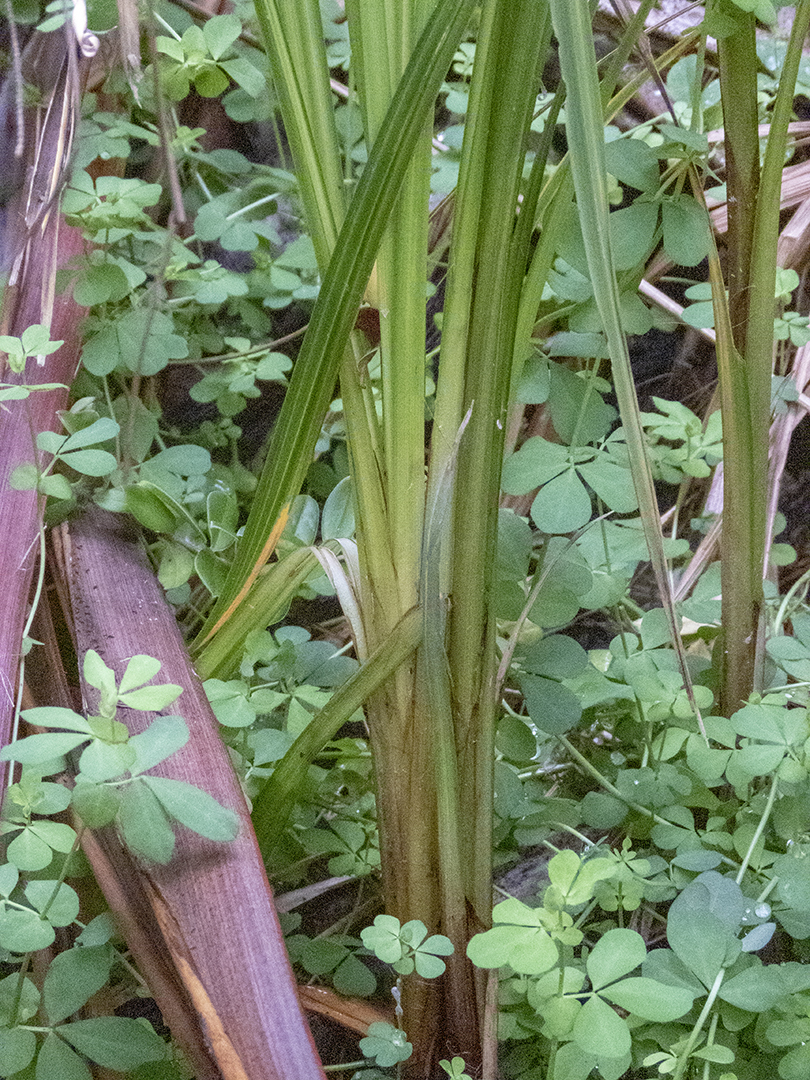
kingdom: Plantae
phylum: Tracheophyta
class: Liliopsida
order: Poales
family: Cyperaceae
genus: Carex
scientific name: Carex geminata
